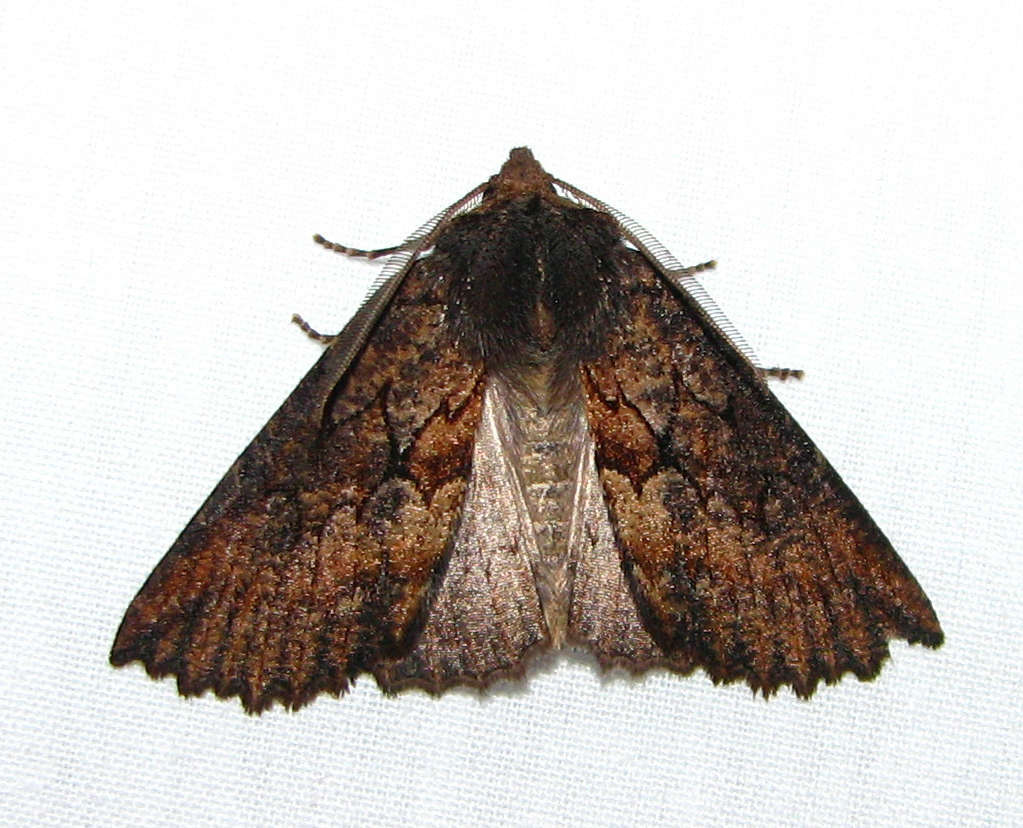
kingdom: Animalia
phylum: Arthropoda
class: Insecta
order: Lepidoptera
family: Geometridae
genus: Nisista
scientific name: Nisista serrata
